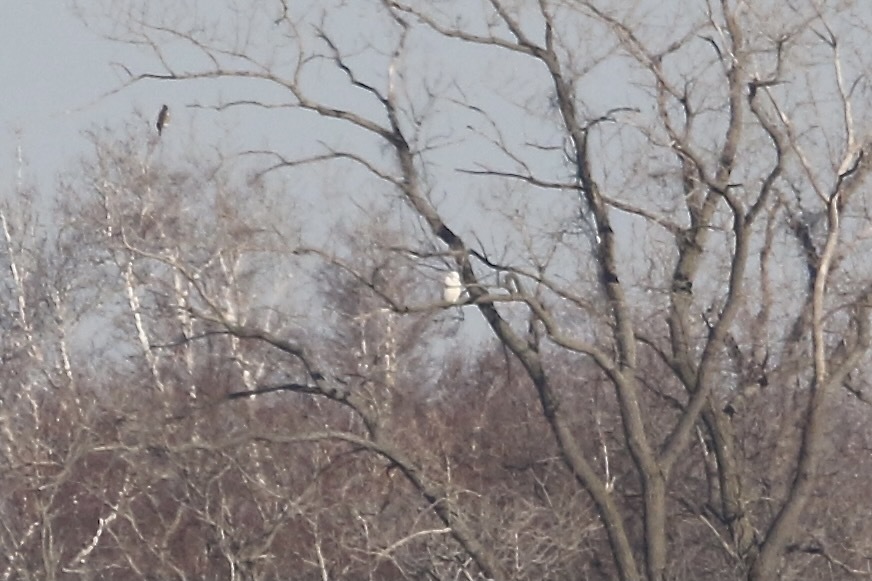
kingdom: Animalia
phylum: Chordata
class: Aves
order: Strigiformes
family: Strigidae
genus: Bubo
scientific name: Bubo scandiacus
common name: Snowy owl
